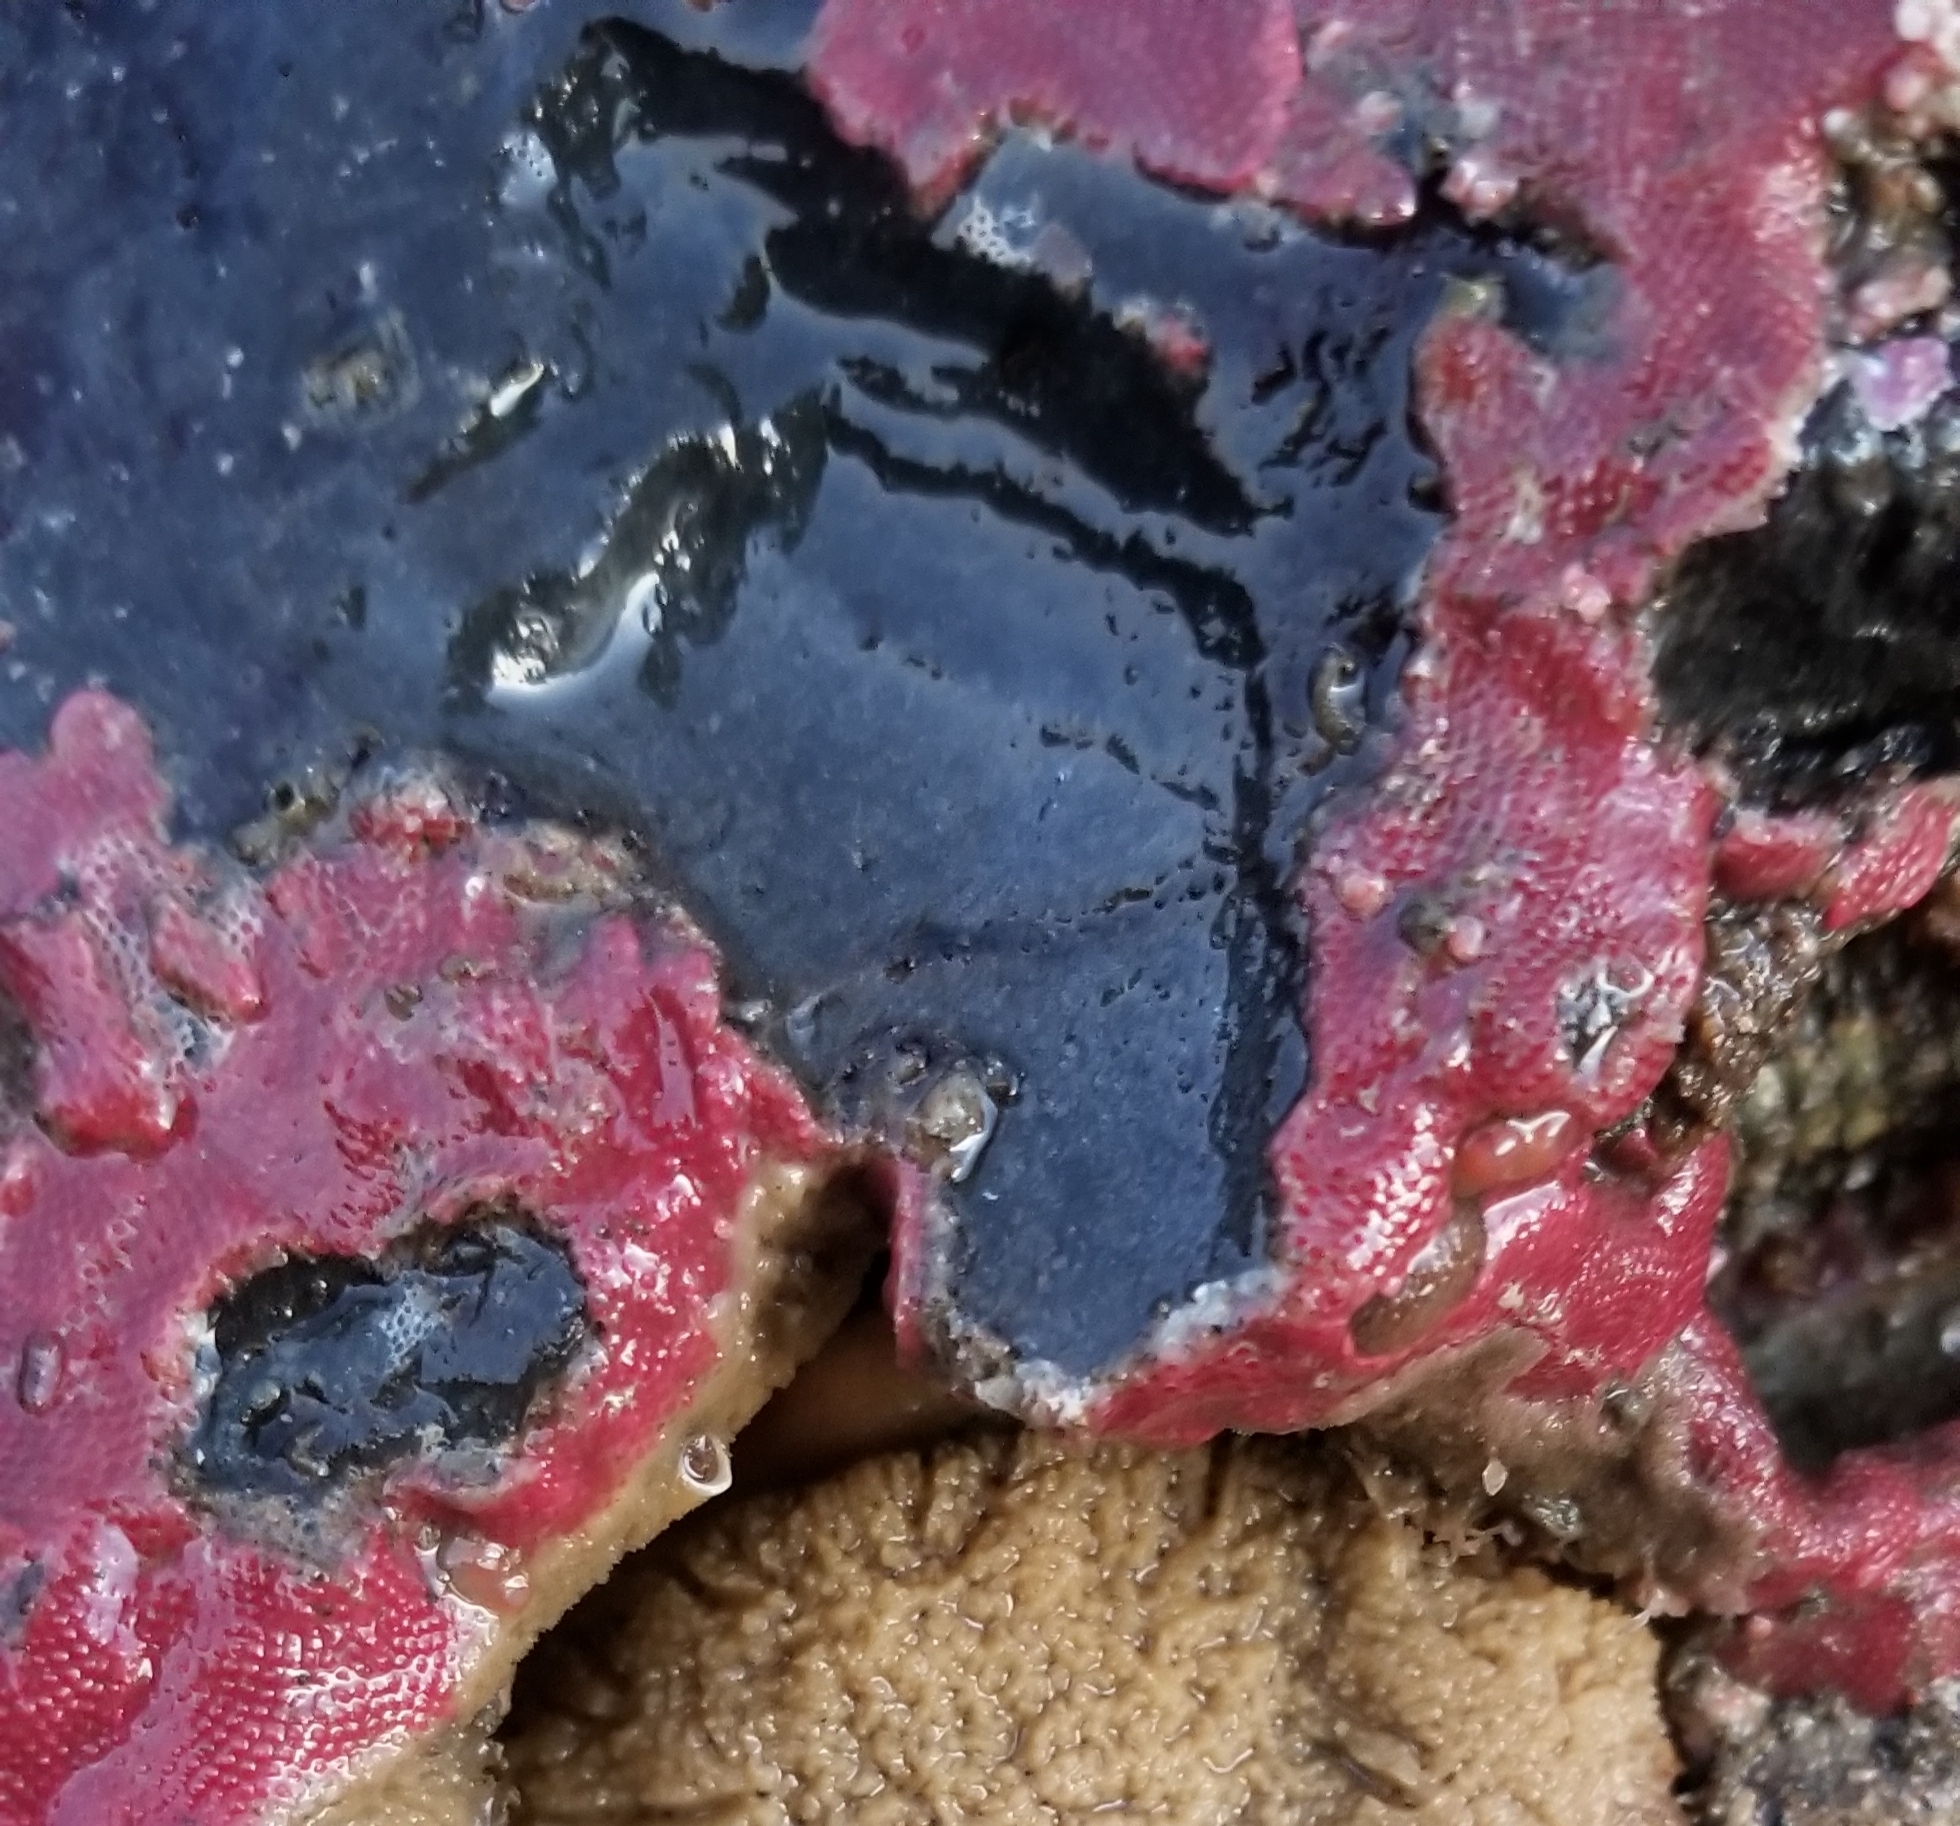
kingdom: Animalia
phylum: Bryozoa
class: Gymnolaemata
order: Cheilostomatida
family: Eurystomellidae
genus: Integripelta
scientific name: Integripelta bilabiata
